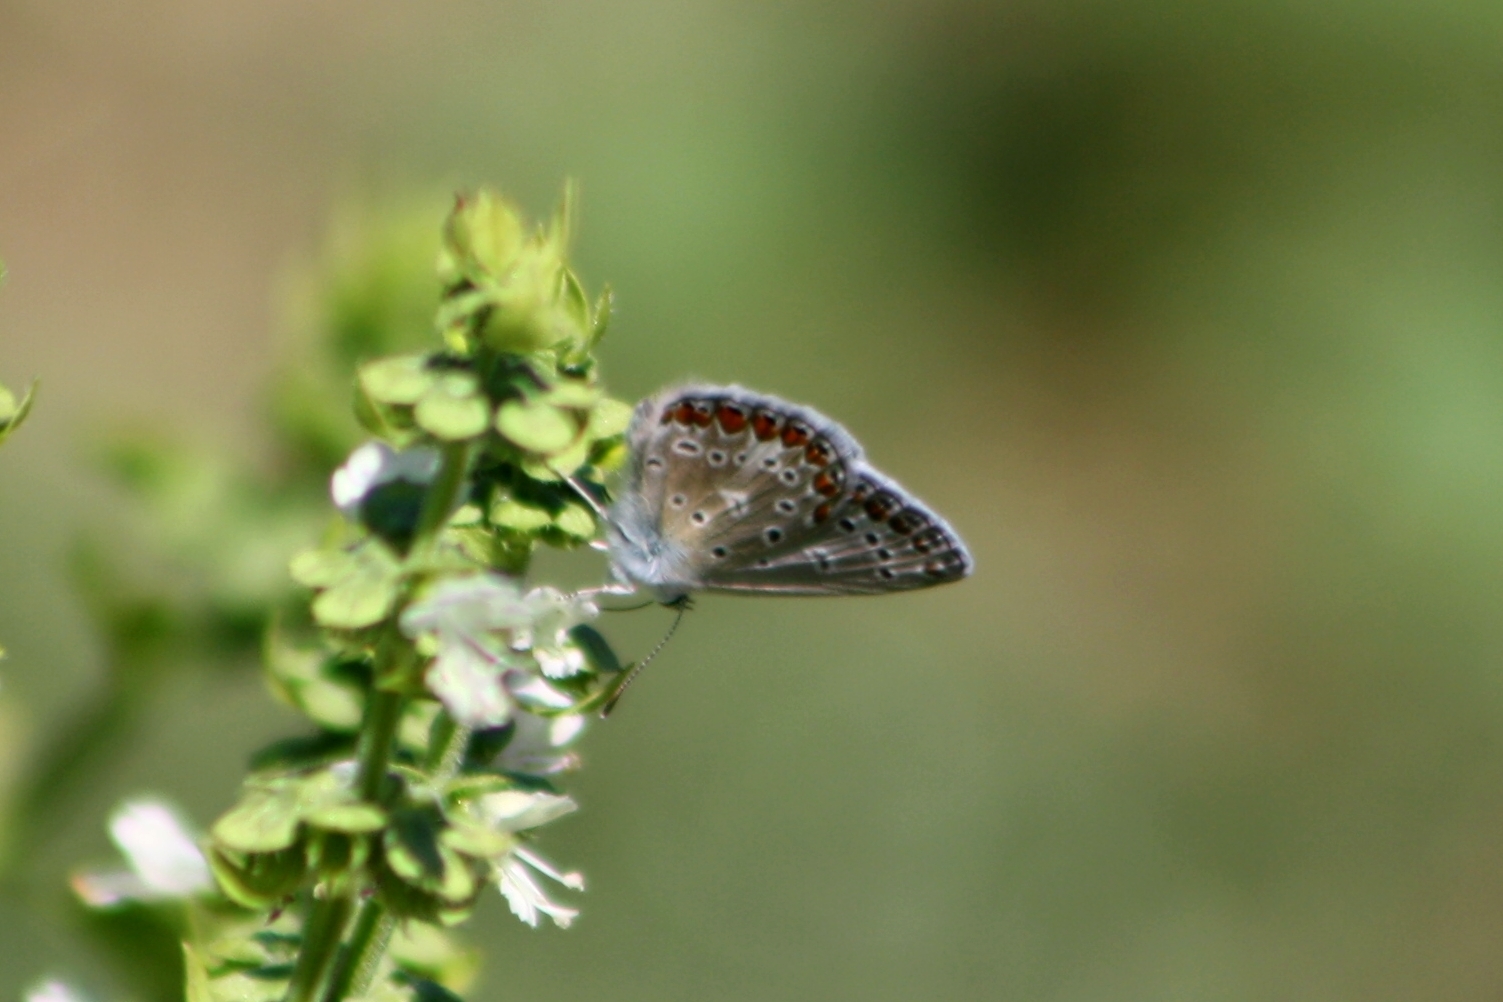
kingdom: Animalia
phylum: Arthropoda
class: Insecta
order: Lepidoptera
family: Lycaenidae
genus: Polyommatus
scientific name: Polyommatus icarus
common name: Common blue
